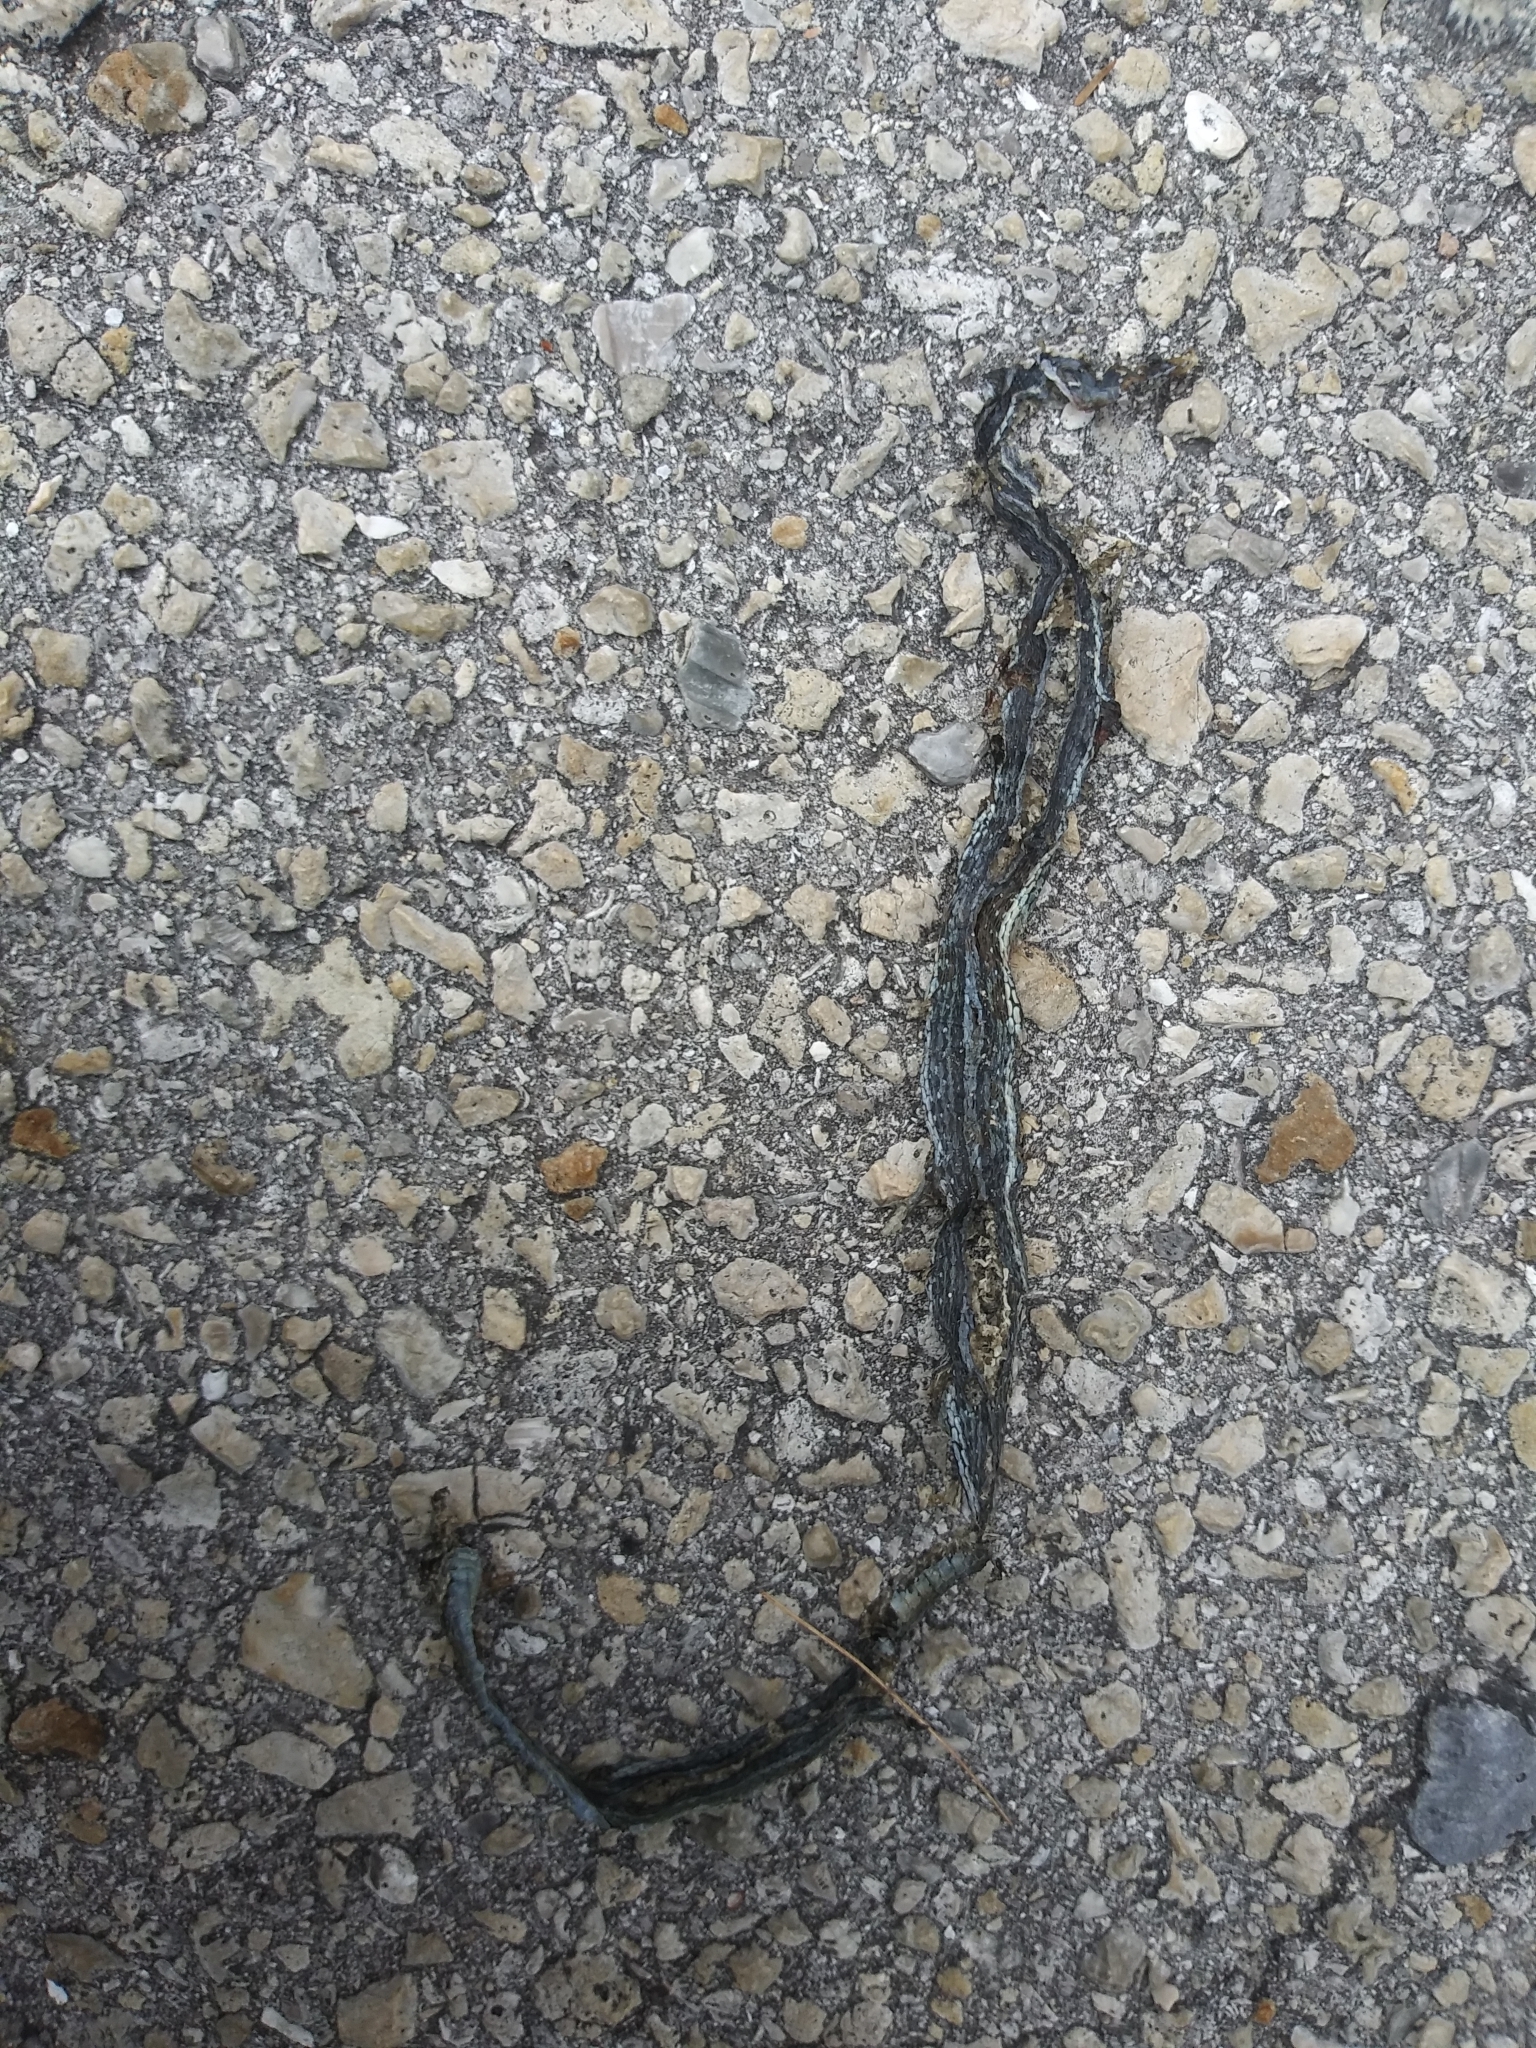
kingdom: Animalia
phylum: Chordata
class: Squamata
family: Colubridae
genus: Thamnophis
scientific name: Thamnophis saurita
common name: Eastern ribbonsnake
